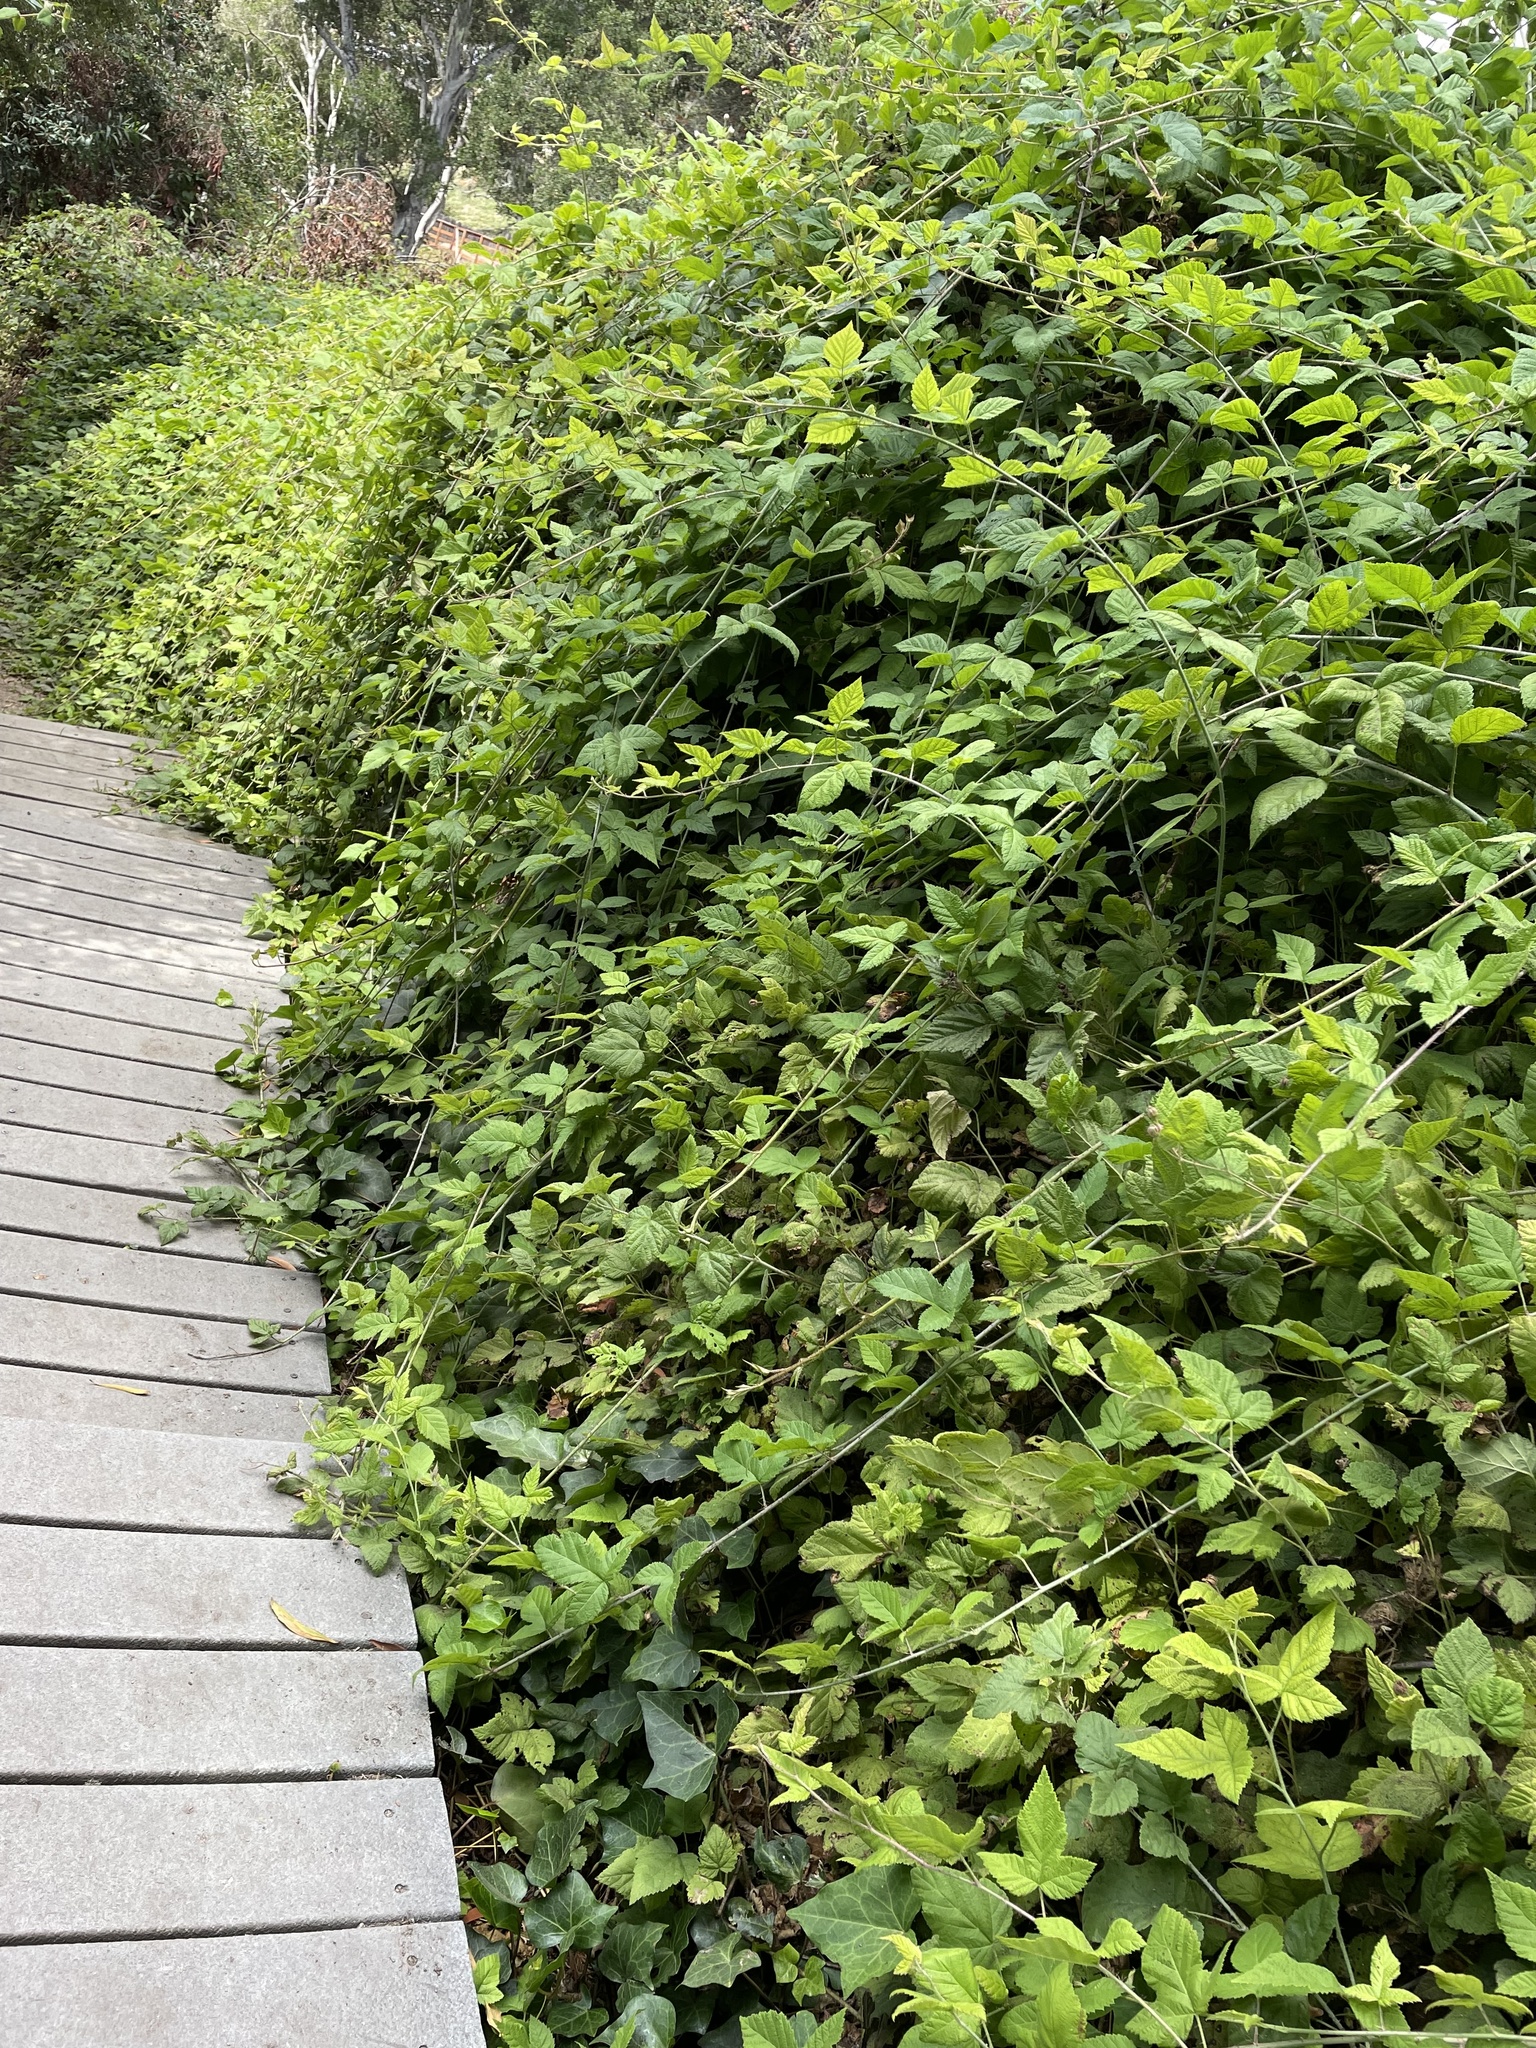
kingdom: Plantae
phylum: Tracheophyta
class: Magnoliopsida
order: Rosales
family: Rosaceae
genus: Rubus
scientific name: Rubus ursinus
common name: Pacific blackberry
